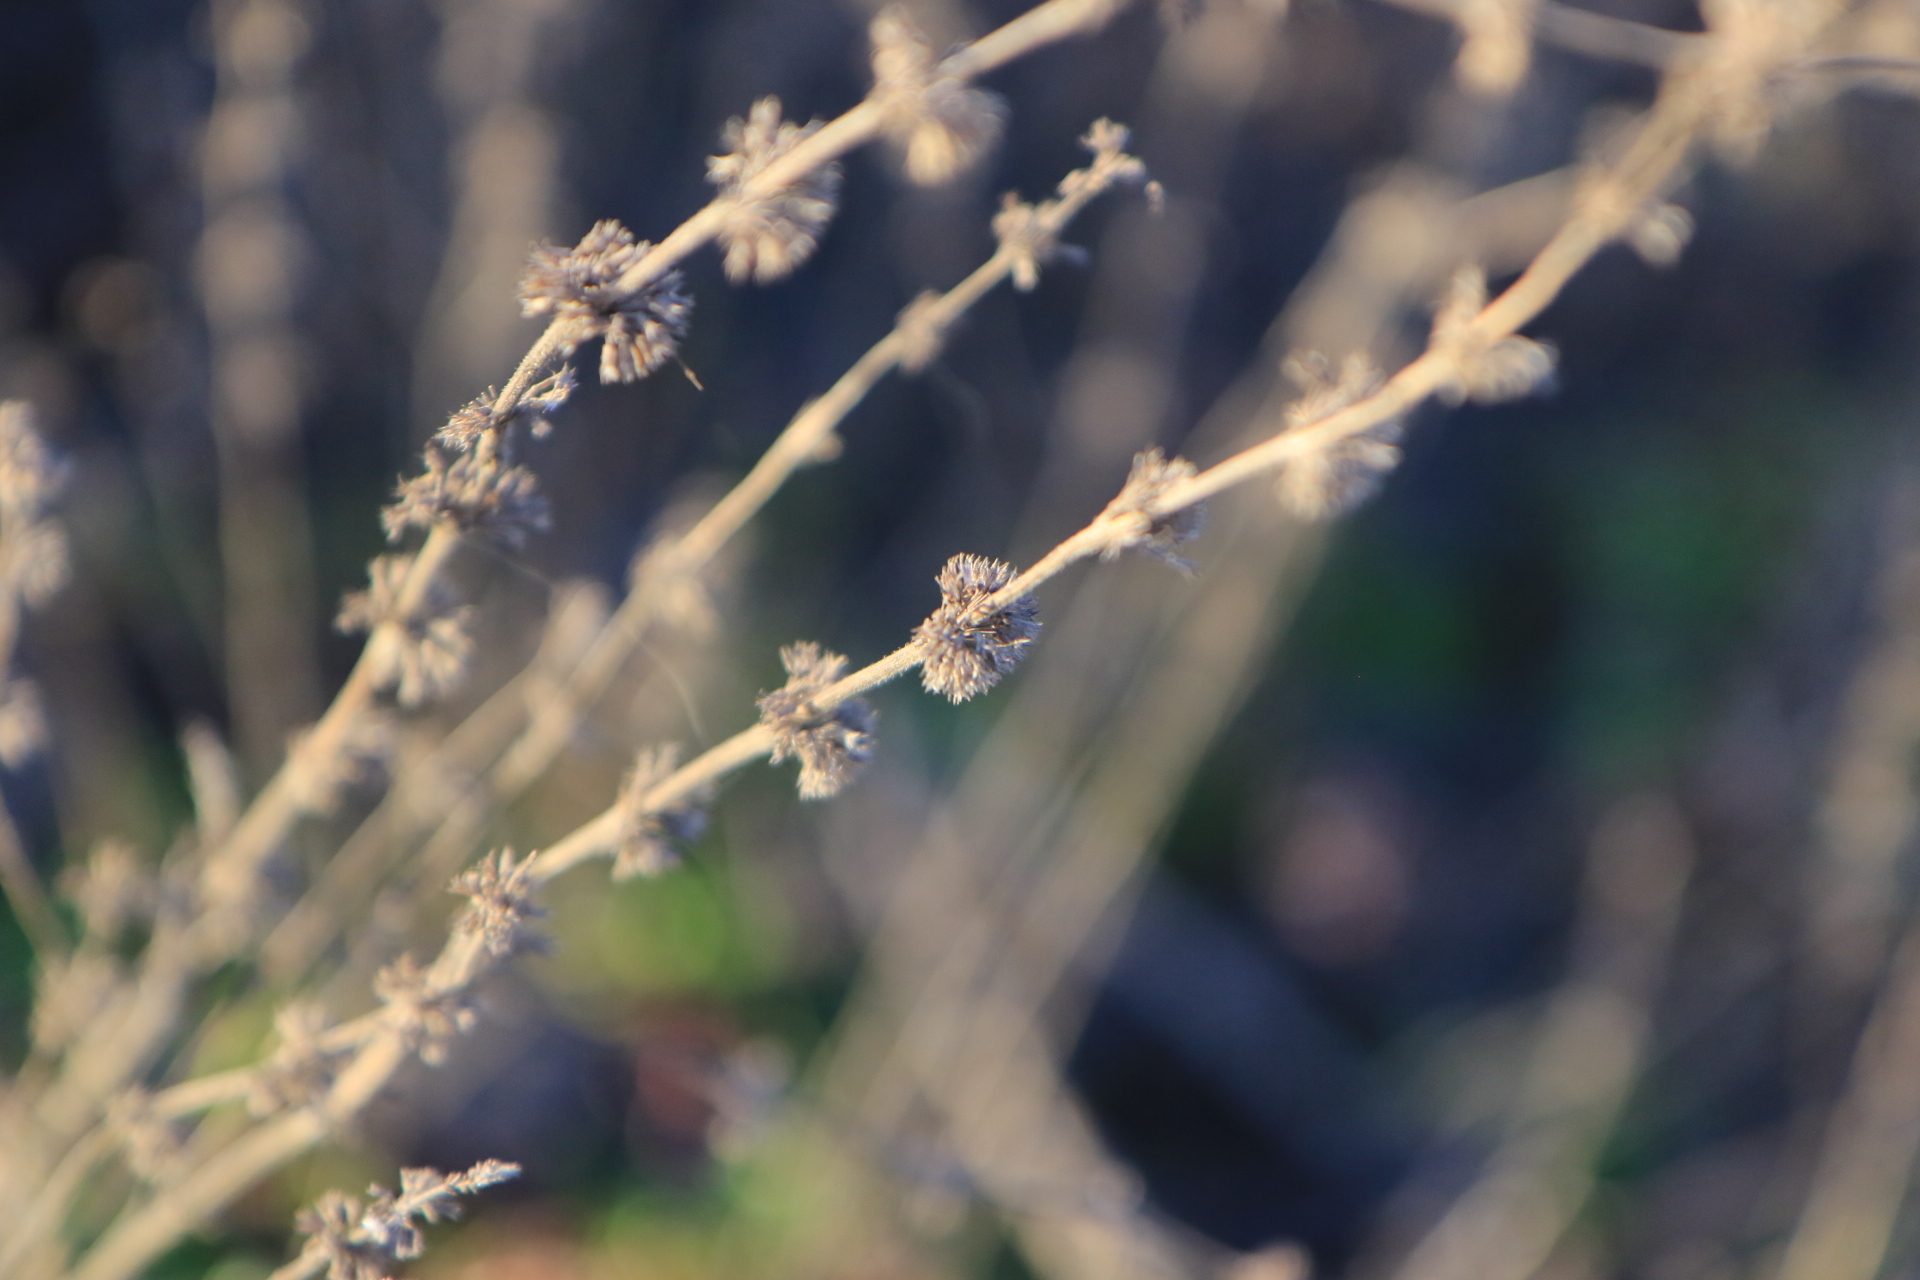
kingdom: Plantae
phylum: Tracheophyta
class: Magnoliopsida
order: Lamiales
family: Lamiaceae
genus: Mentha
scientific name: Mentha pulegium
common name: Pennyroyal
